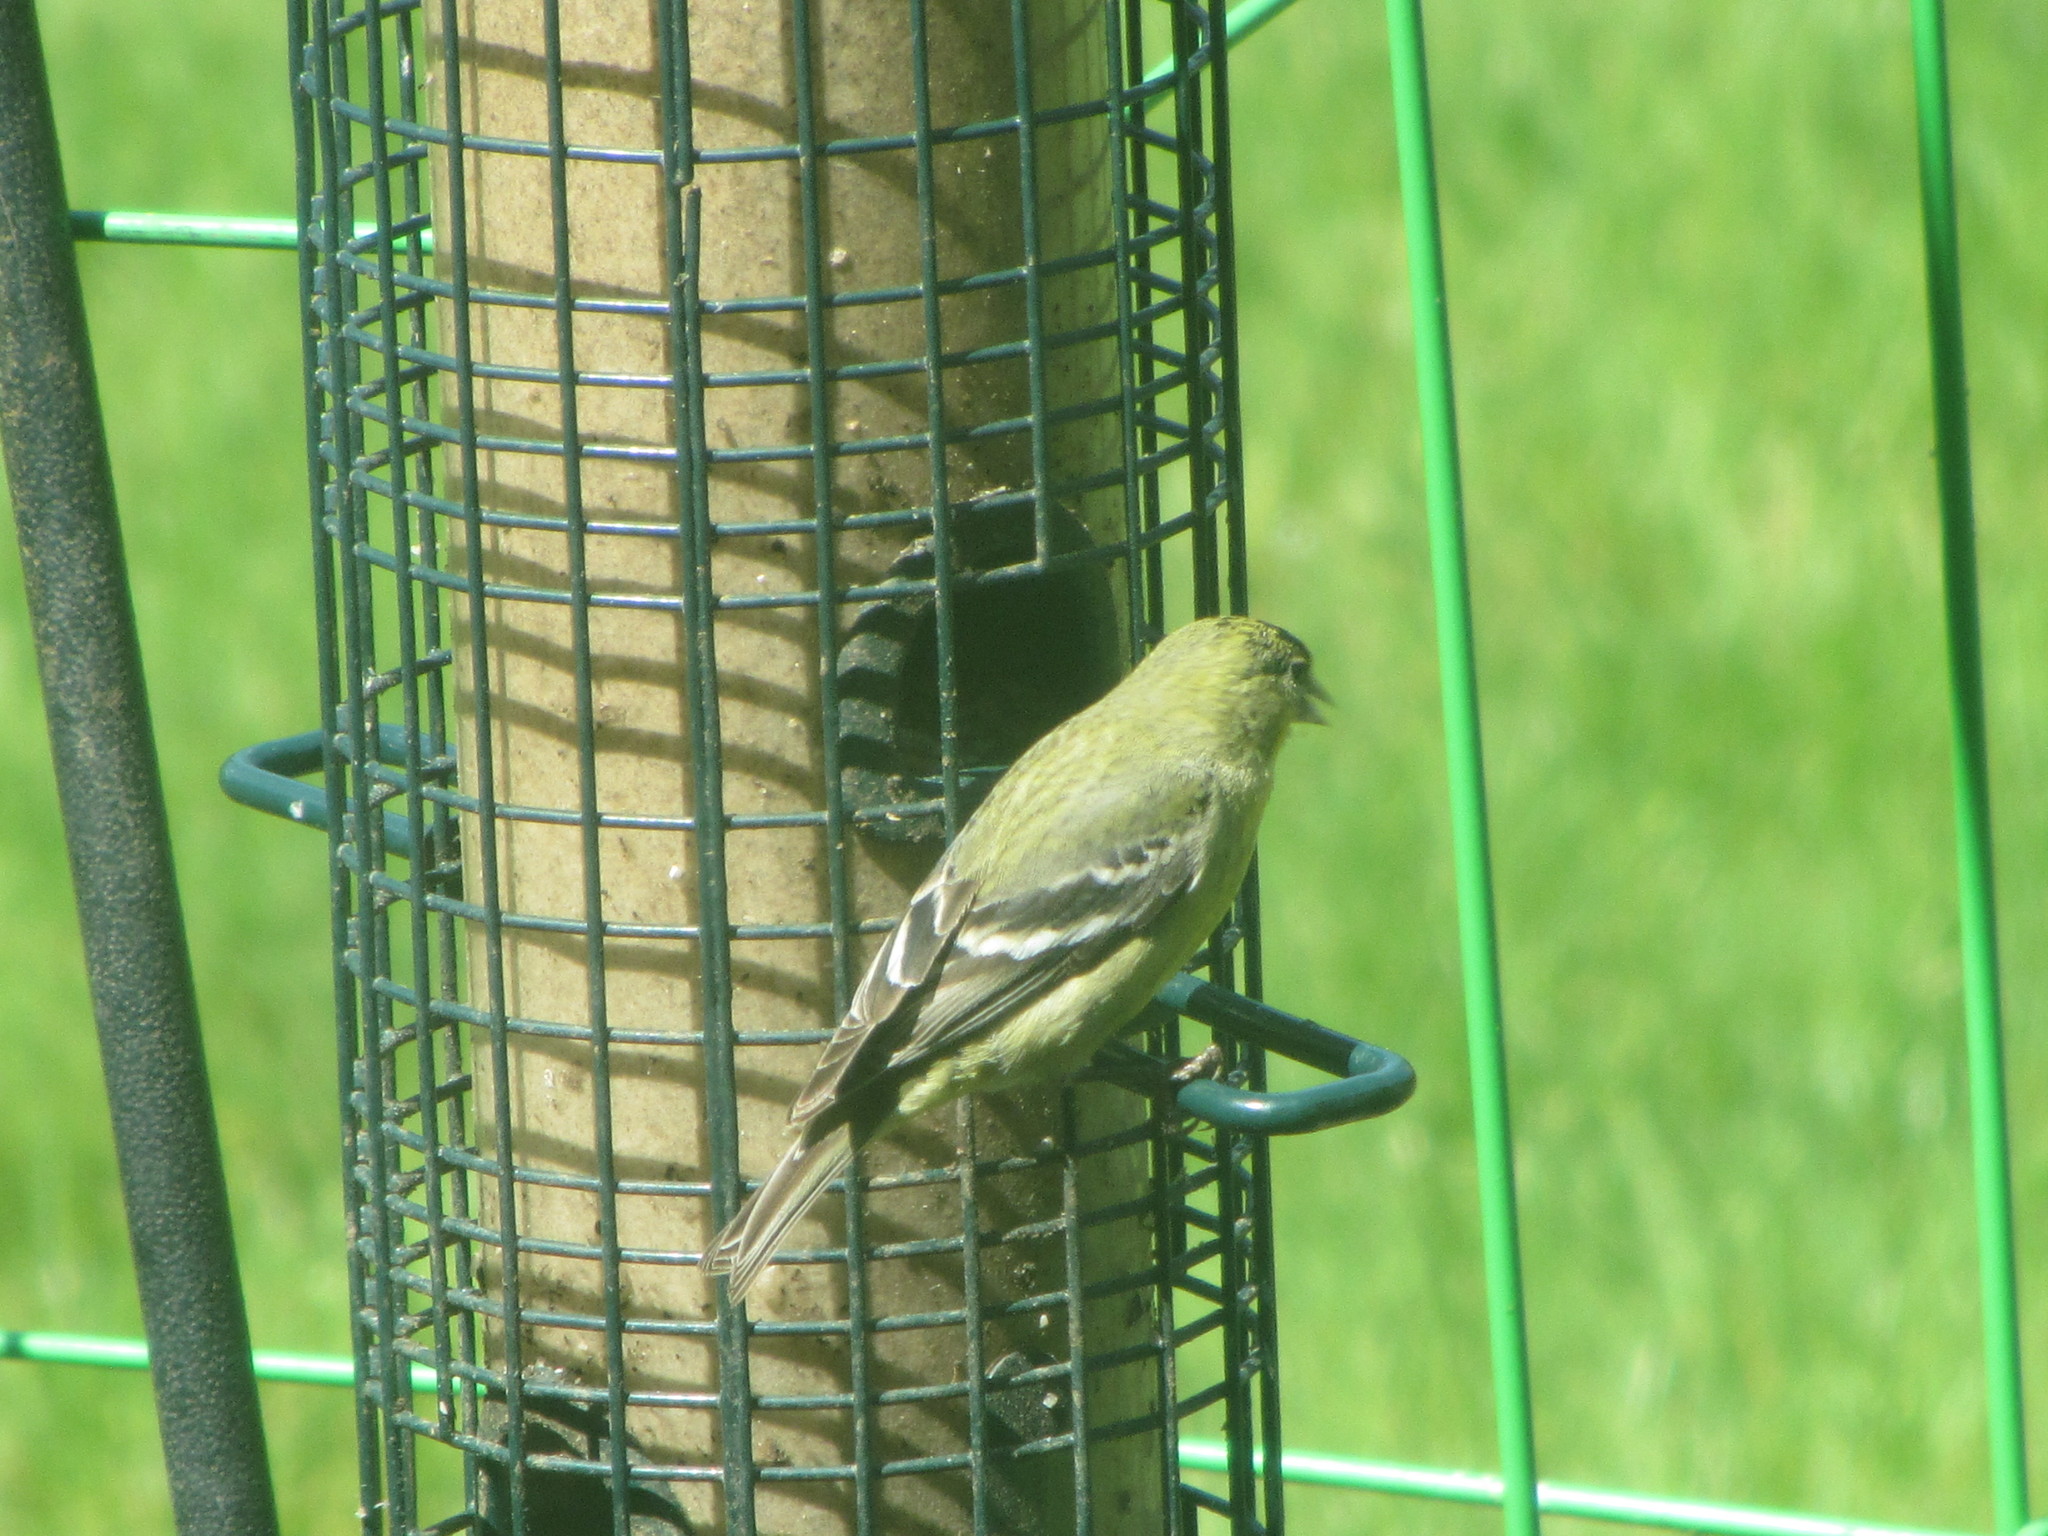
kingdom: Animalia
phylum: Chordata
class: Aves
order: Passeriformes
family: Fringillidae
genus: Spinus
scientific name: Spinus tristis
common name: American goldfinch
